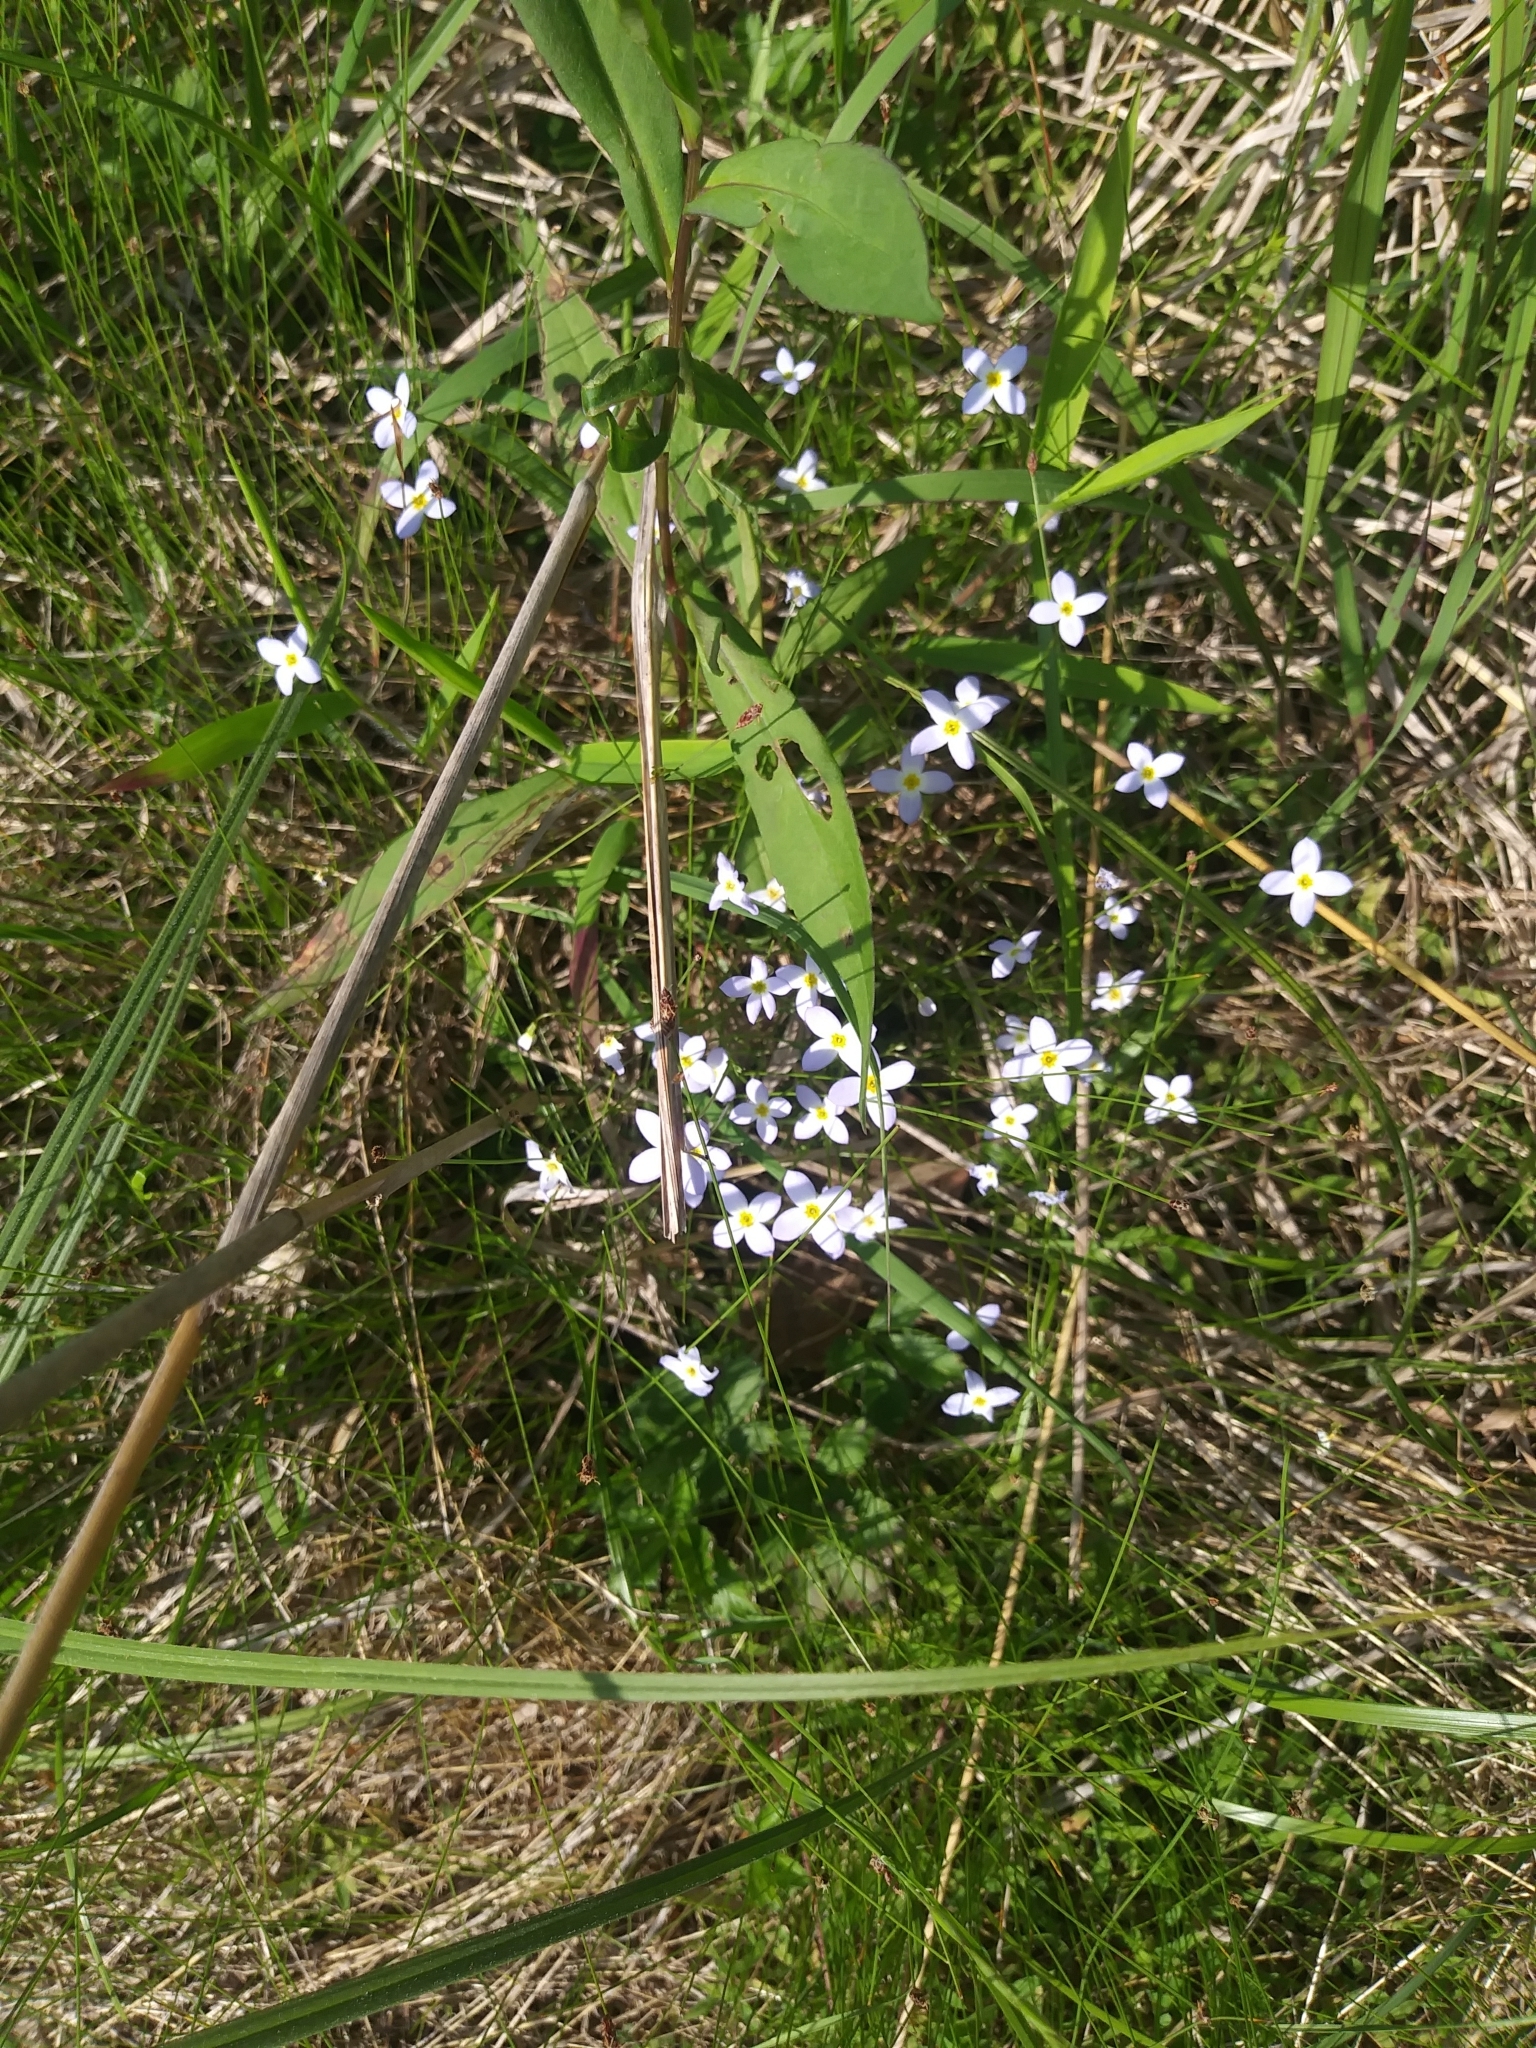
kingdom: Plantae
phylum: Tracheophyta
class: Magnoliopsida
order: Gentianales
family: Rubiaceae
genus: Houstonia
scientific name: Houstonia caerulea
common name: Bluets
